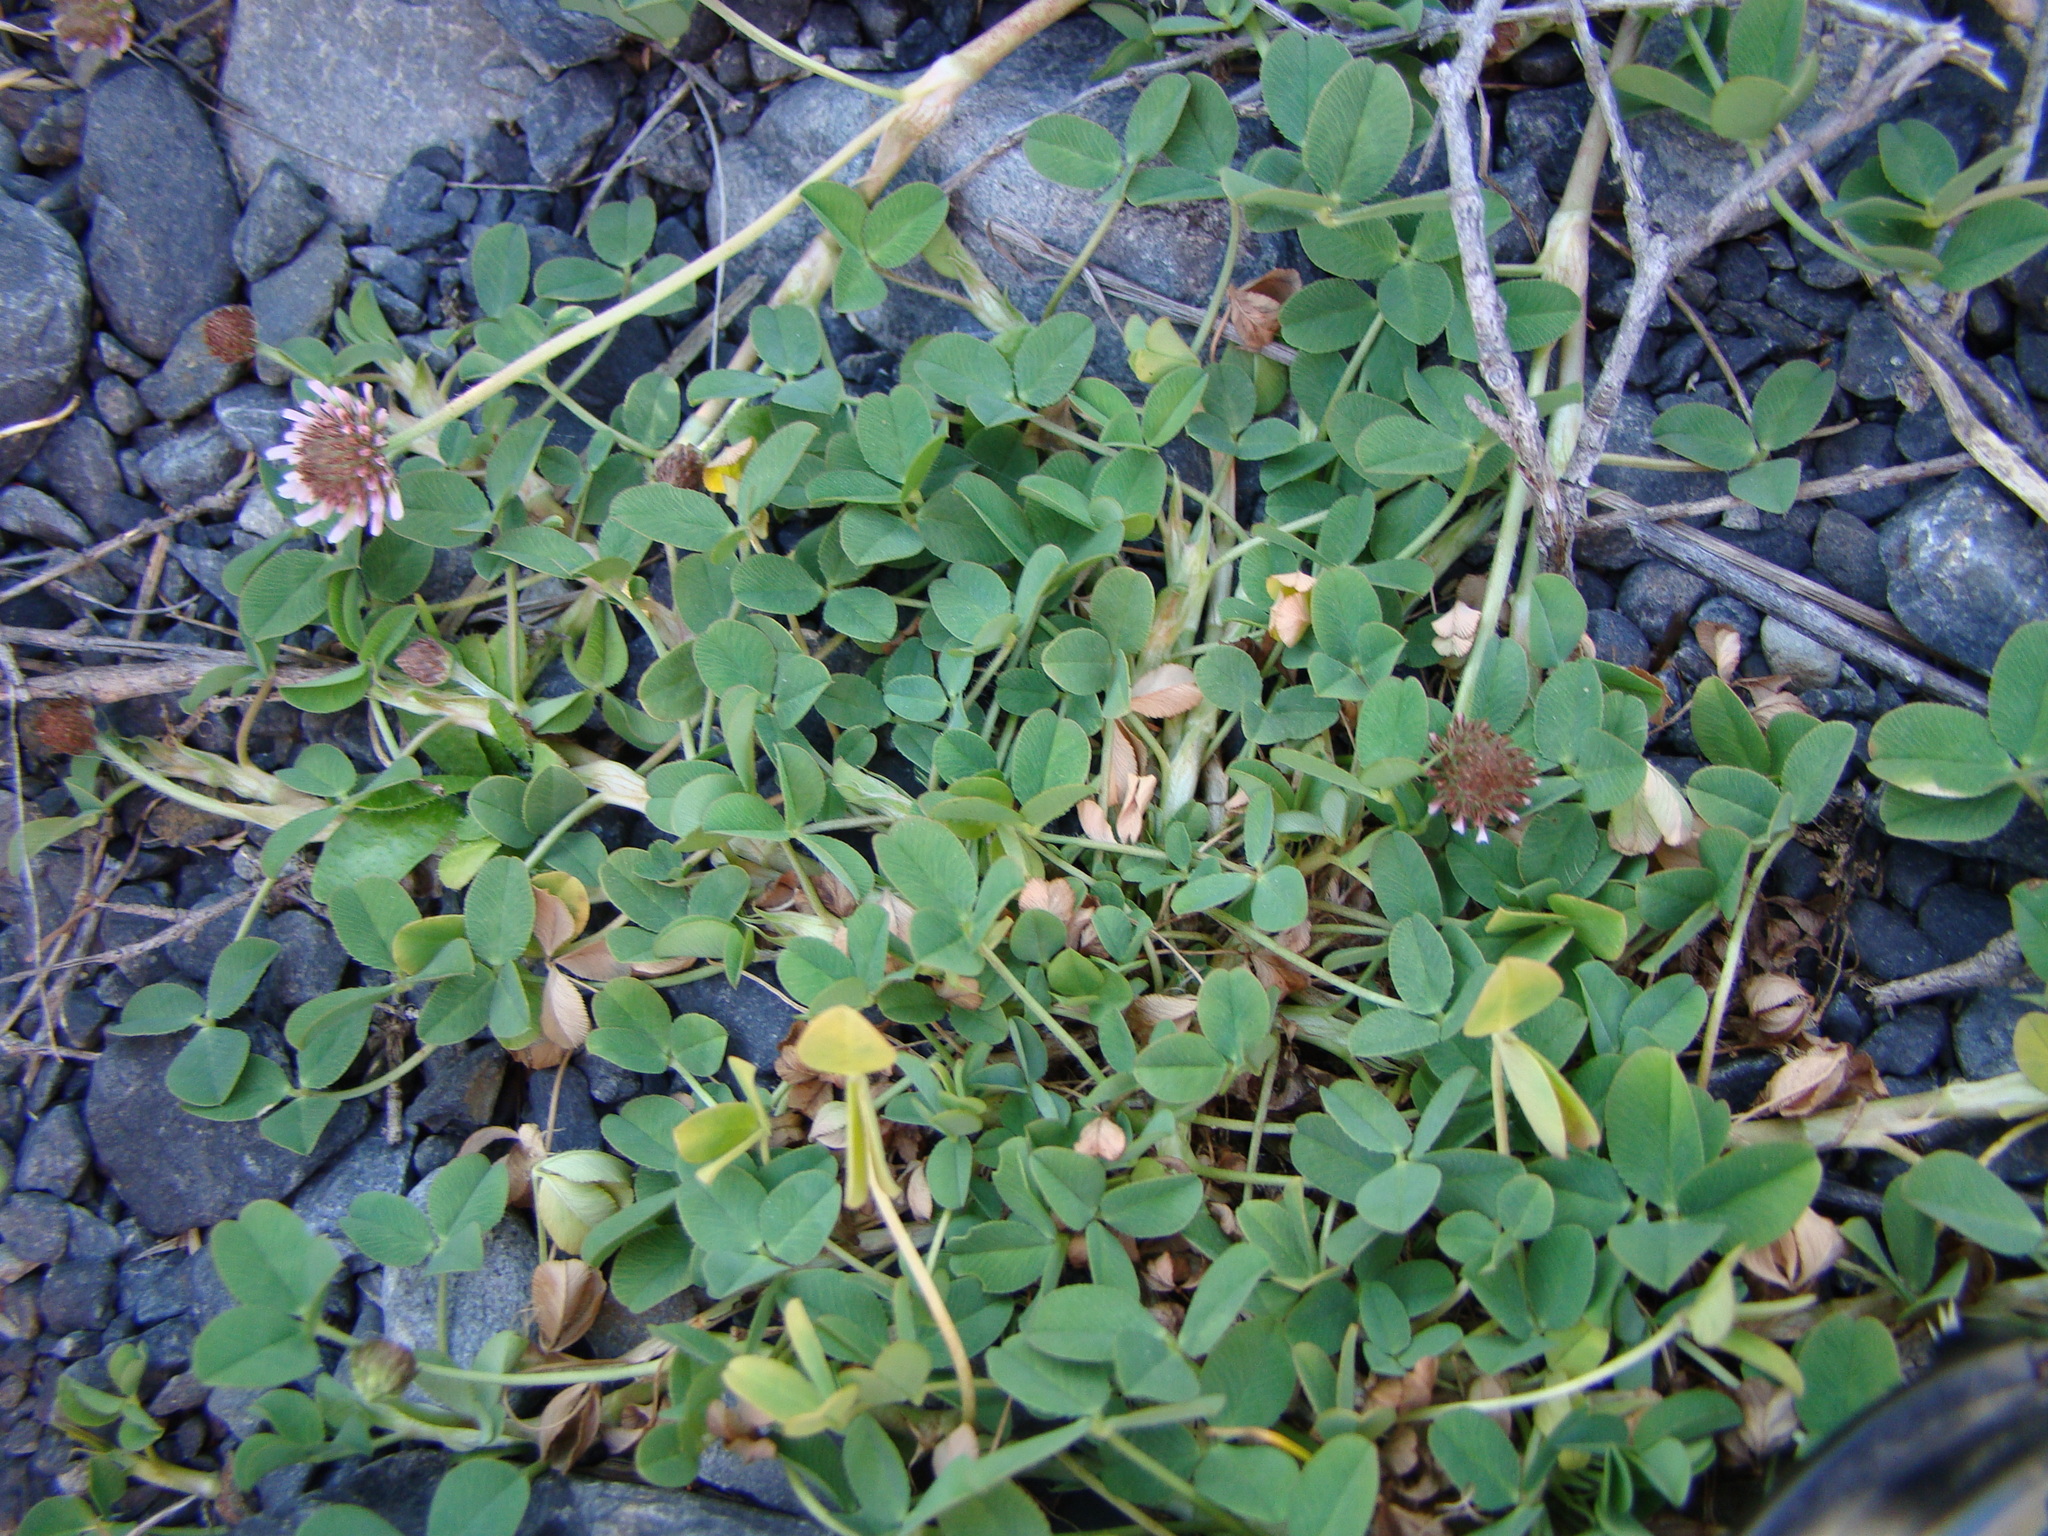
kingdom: Plantae
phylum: Tracheophyta
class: Magnoliopsida
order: Fabales
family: Fabaceae
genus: Trifolium
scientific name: Trifolium repens
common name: White clover
